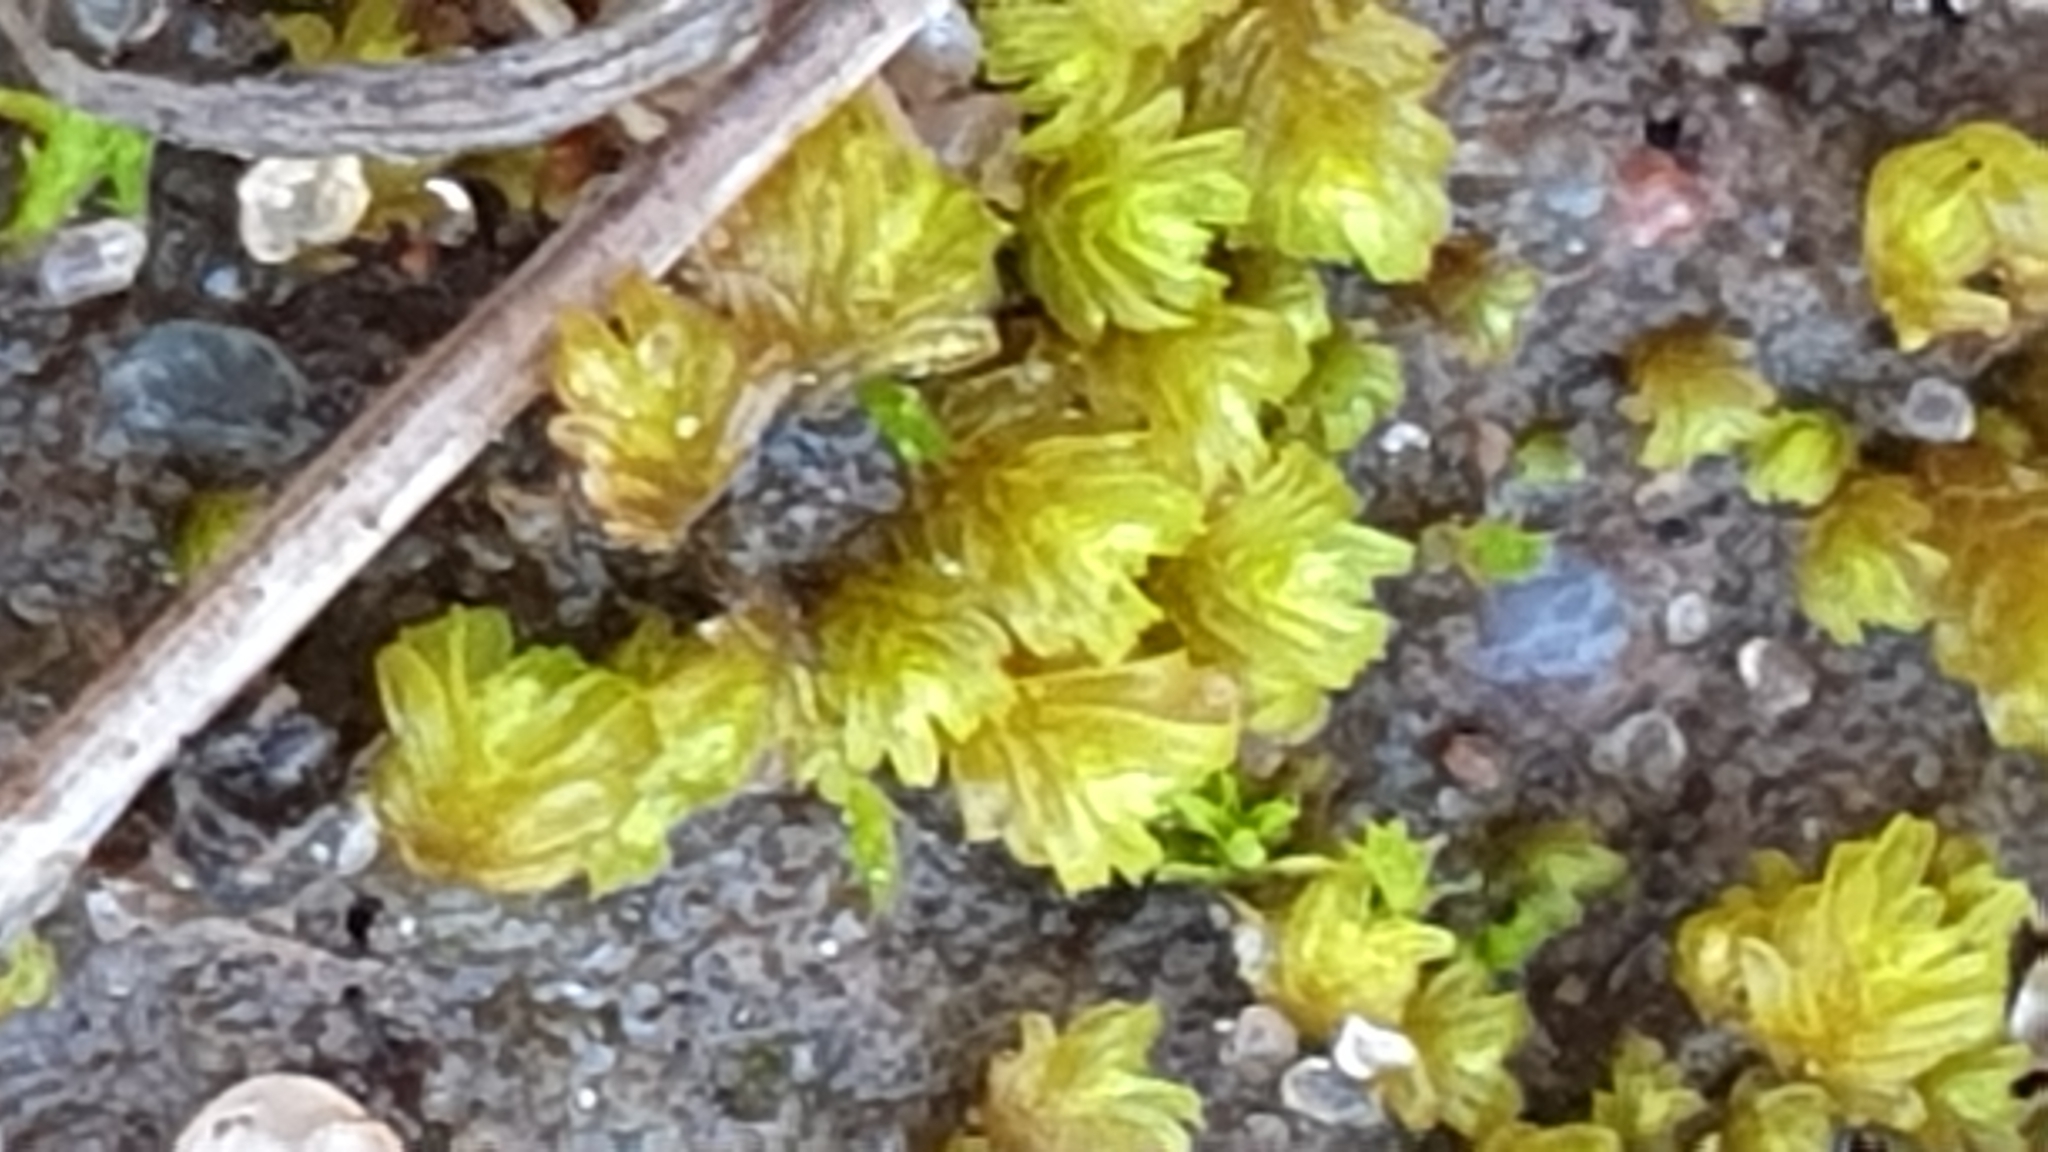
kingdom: Plantae
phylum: Bryophyta
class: Bryopsida
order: Dicranales
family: Fissidentaceae
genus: Fissidens
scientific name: Fissidens megalotis
